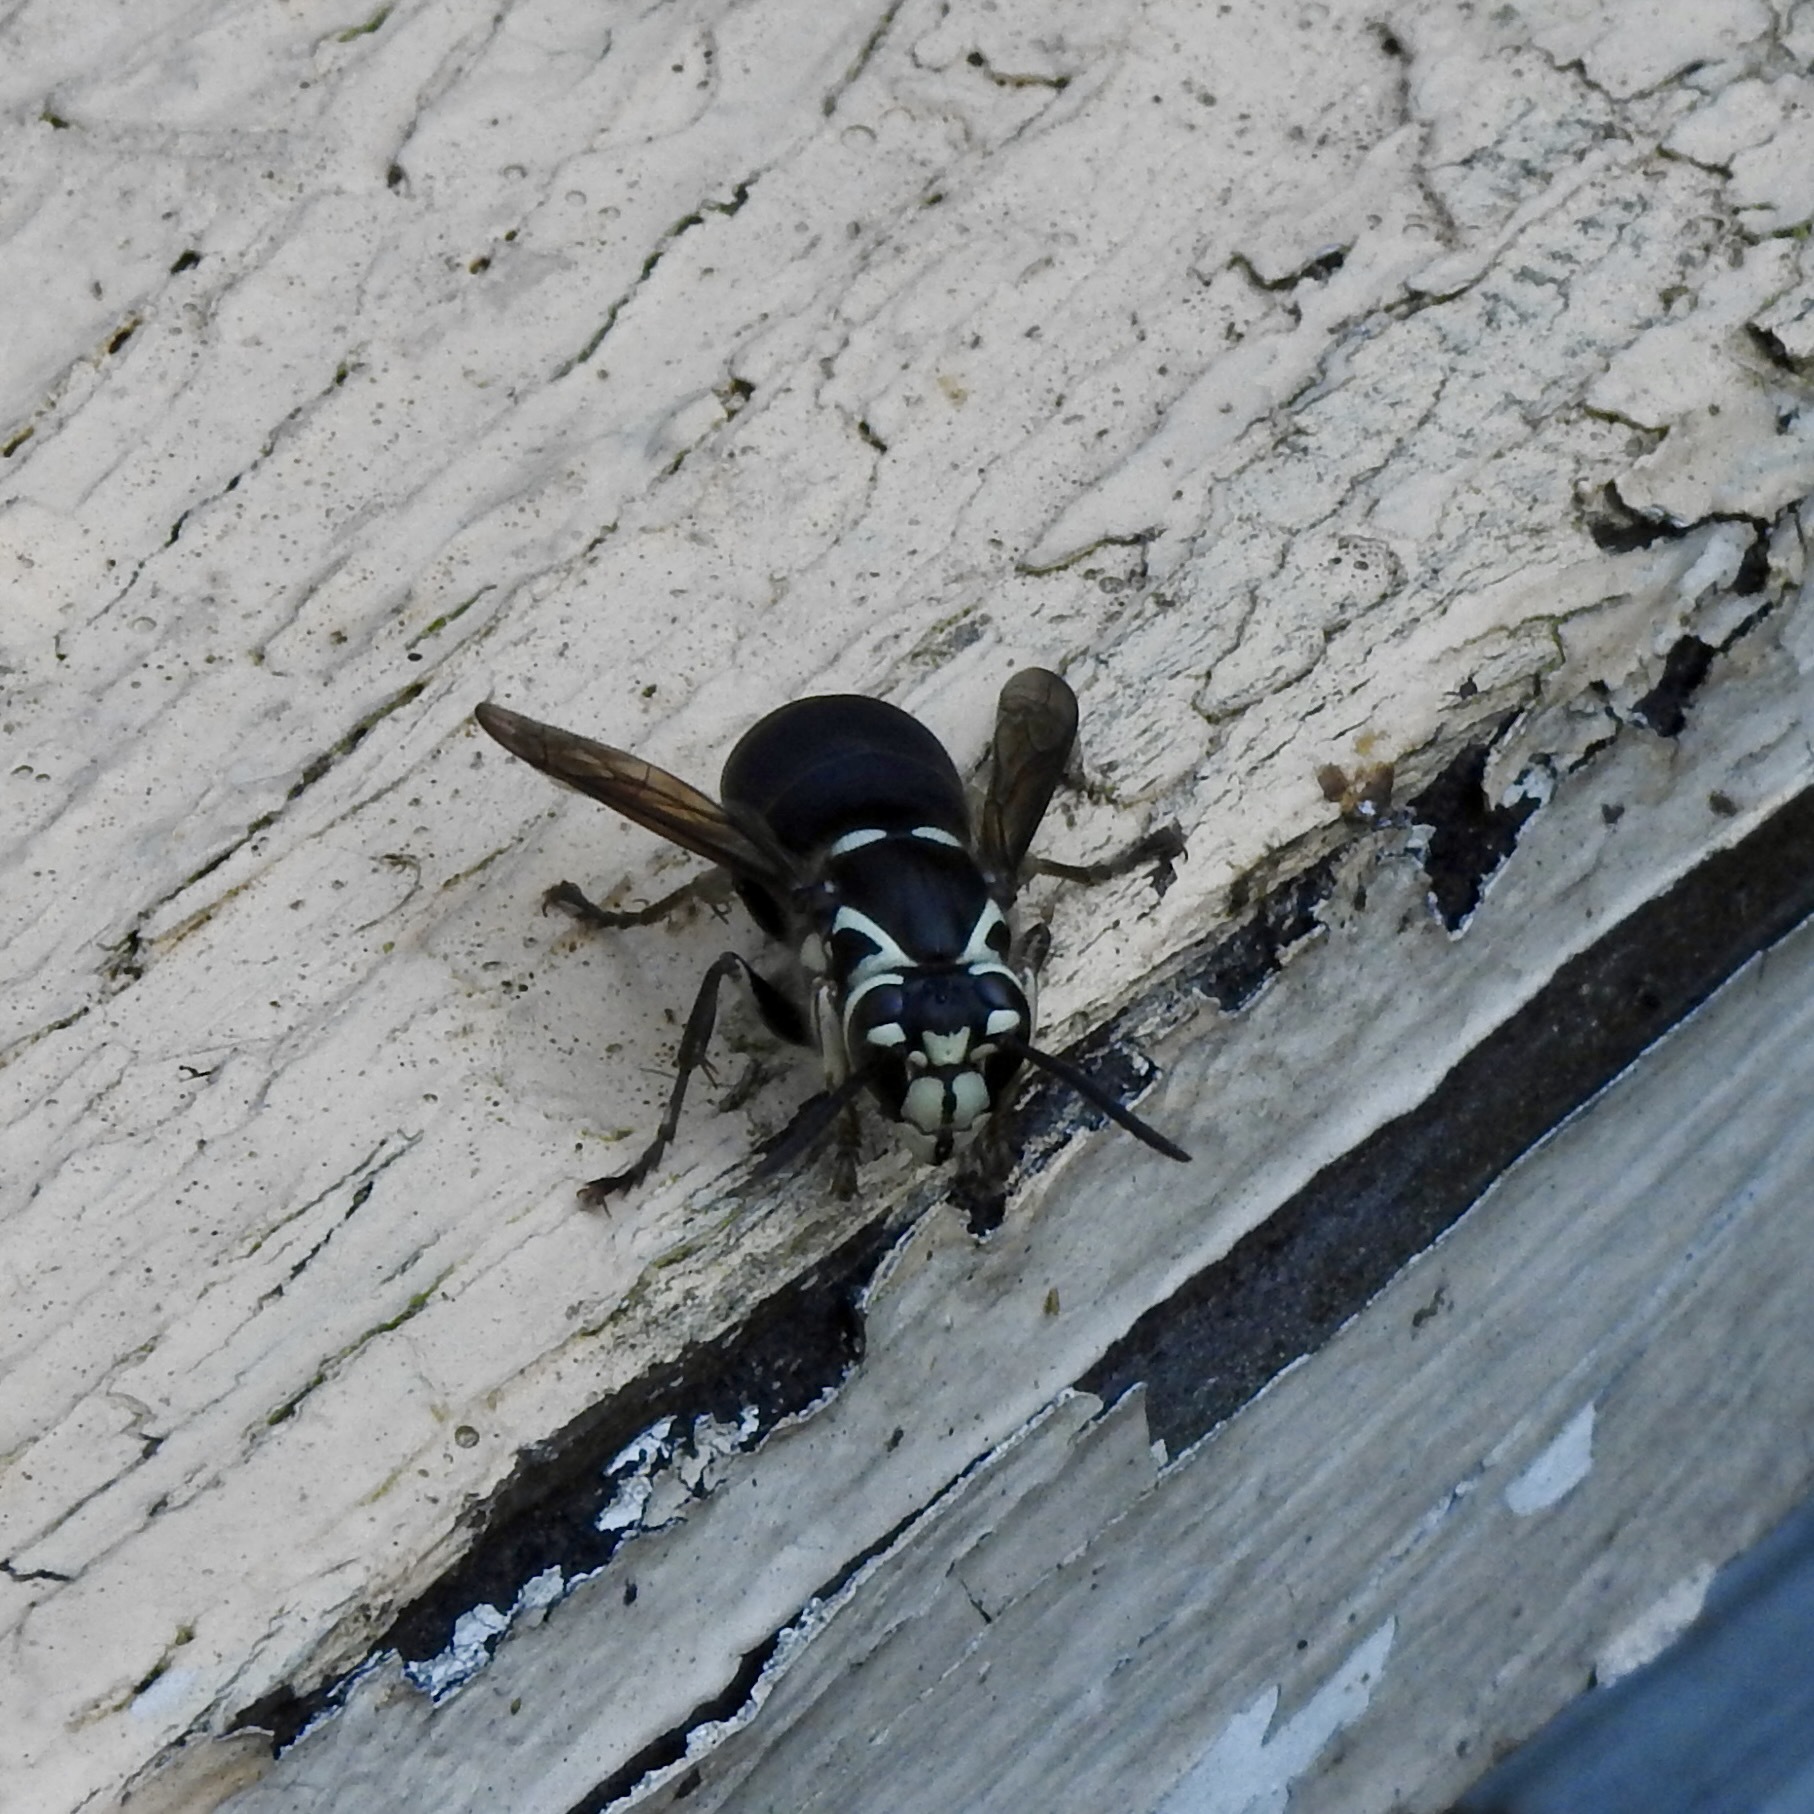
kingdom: Animalia
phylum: Arthropoda
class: Insecta
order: Hymenoptera
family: Vespidae
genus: Dolichovespula
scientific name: Dolichovespula maculata
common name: Bald-faced hornet
